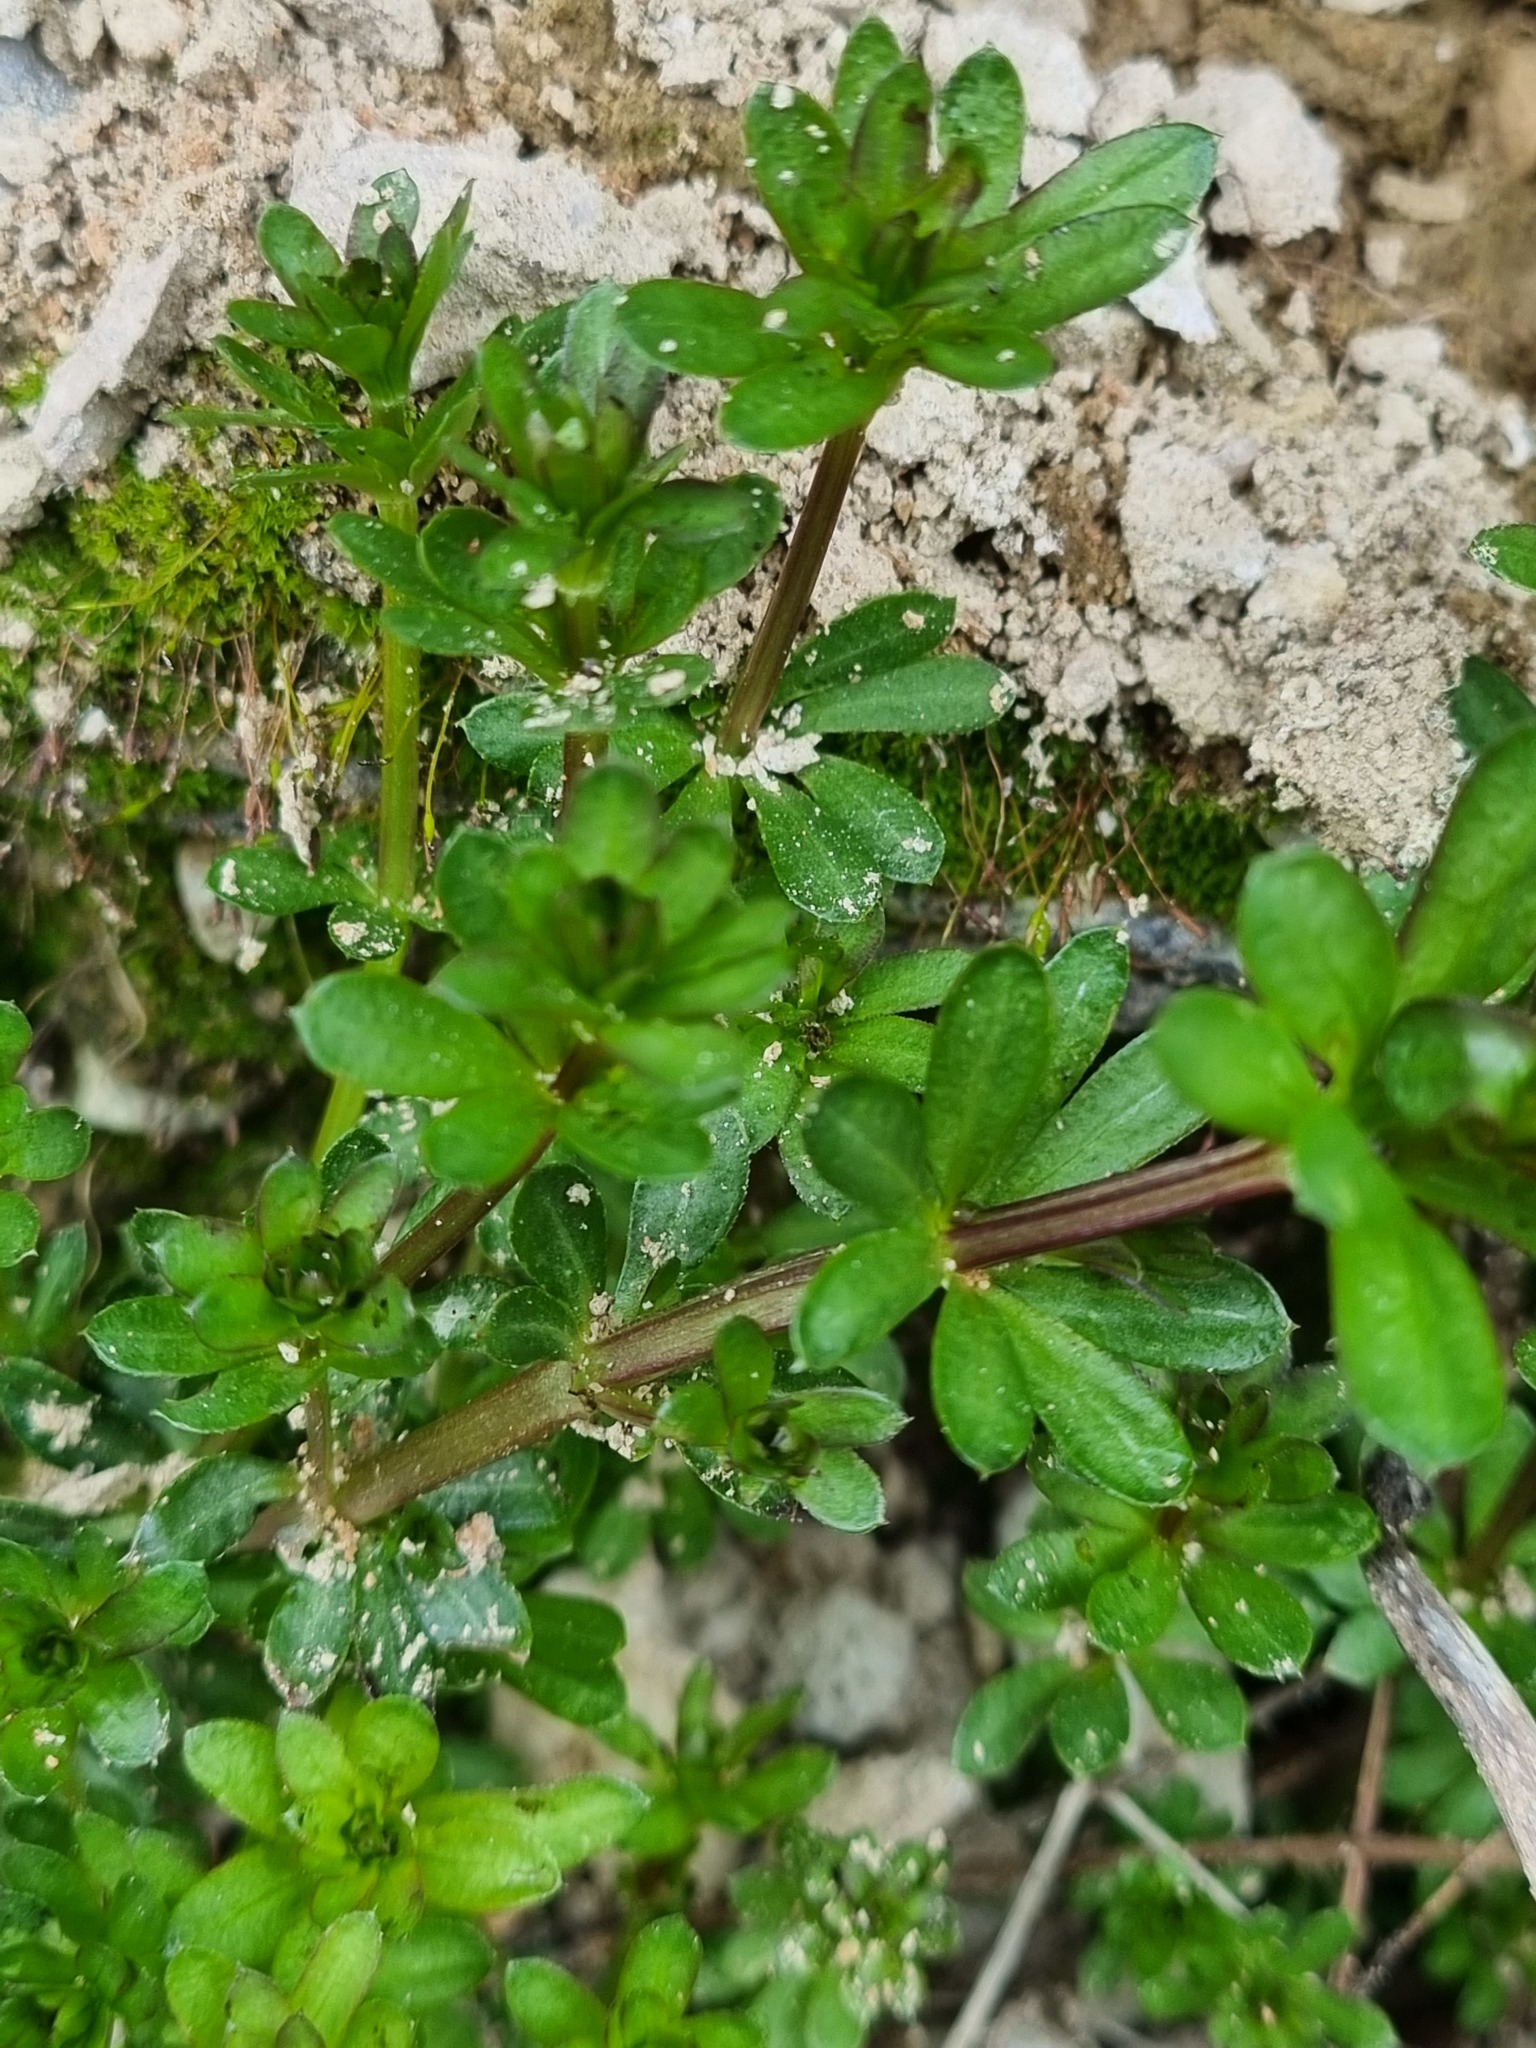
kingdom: Plantae
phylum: Tracheophyta
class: Magnoliopsida
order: Gentianales
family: Rubiaceae
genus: Galium
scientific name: Galium mollugo
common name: Hedge bedstraw
